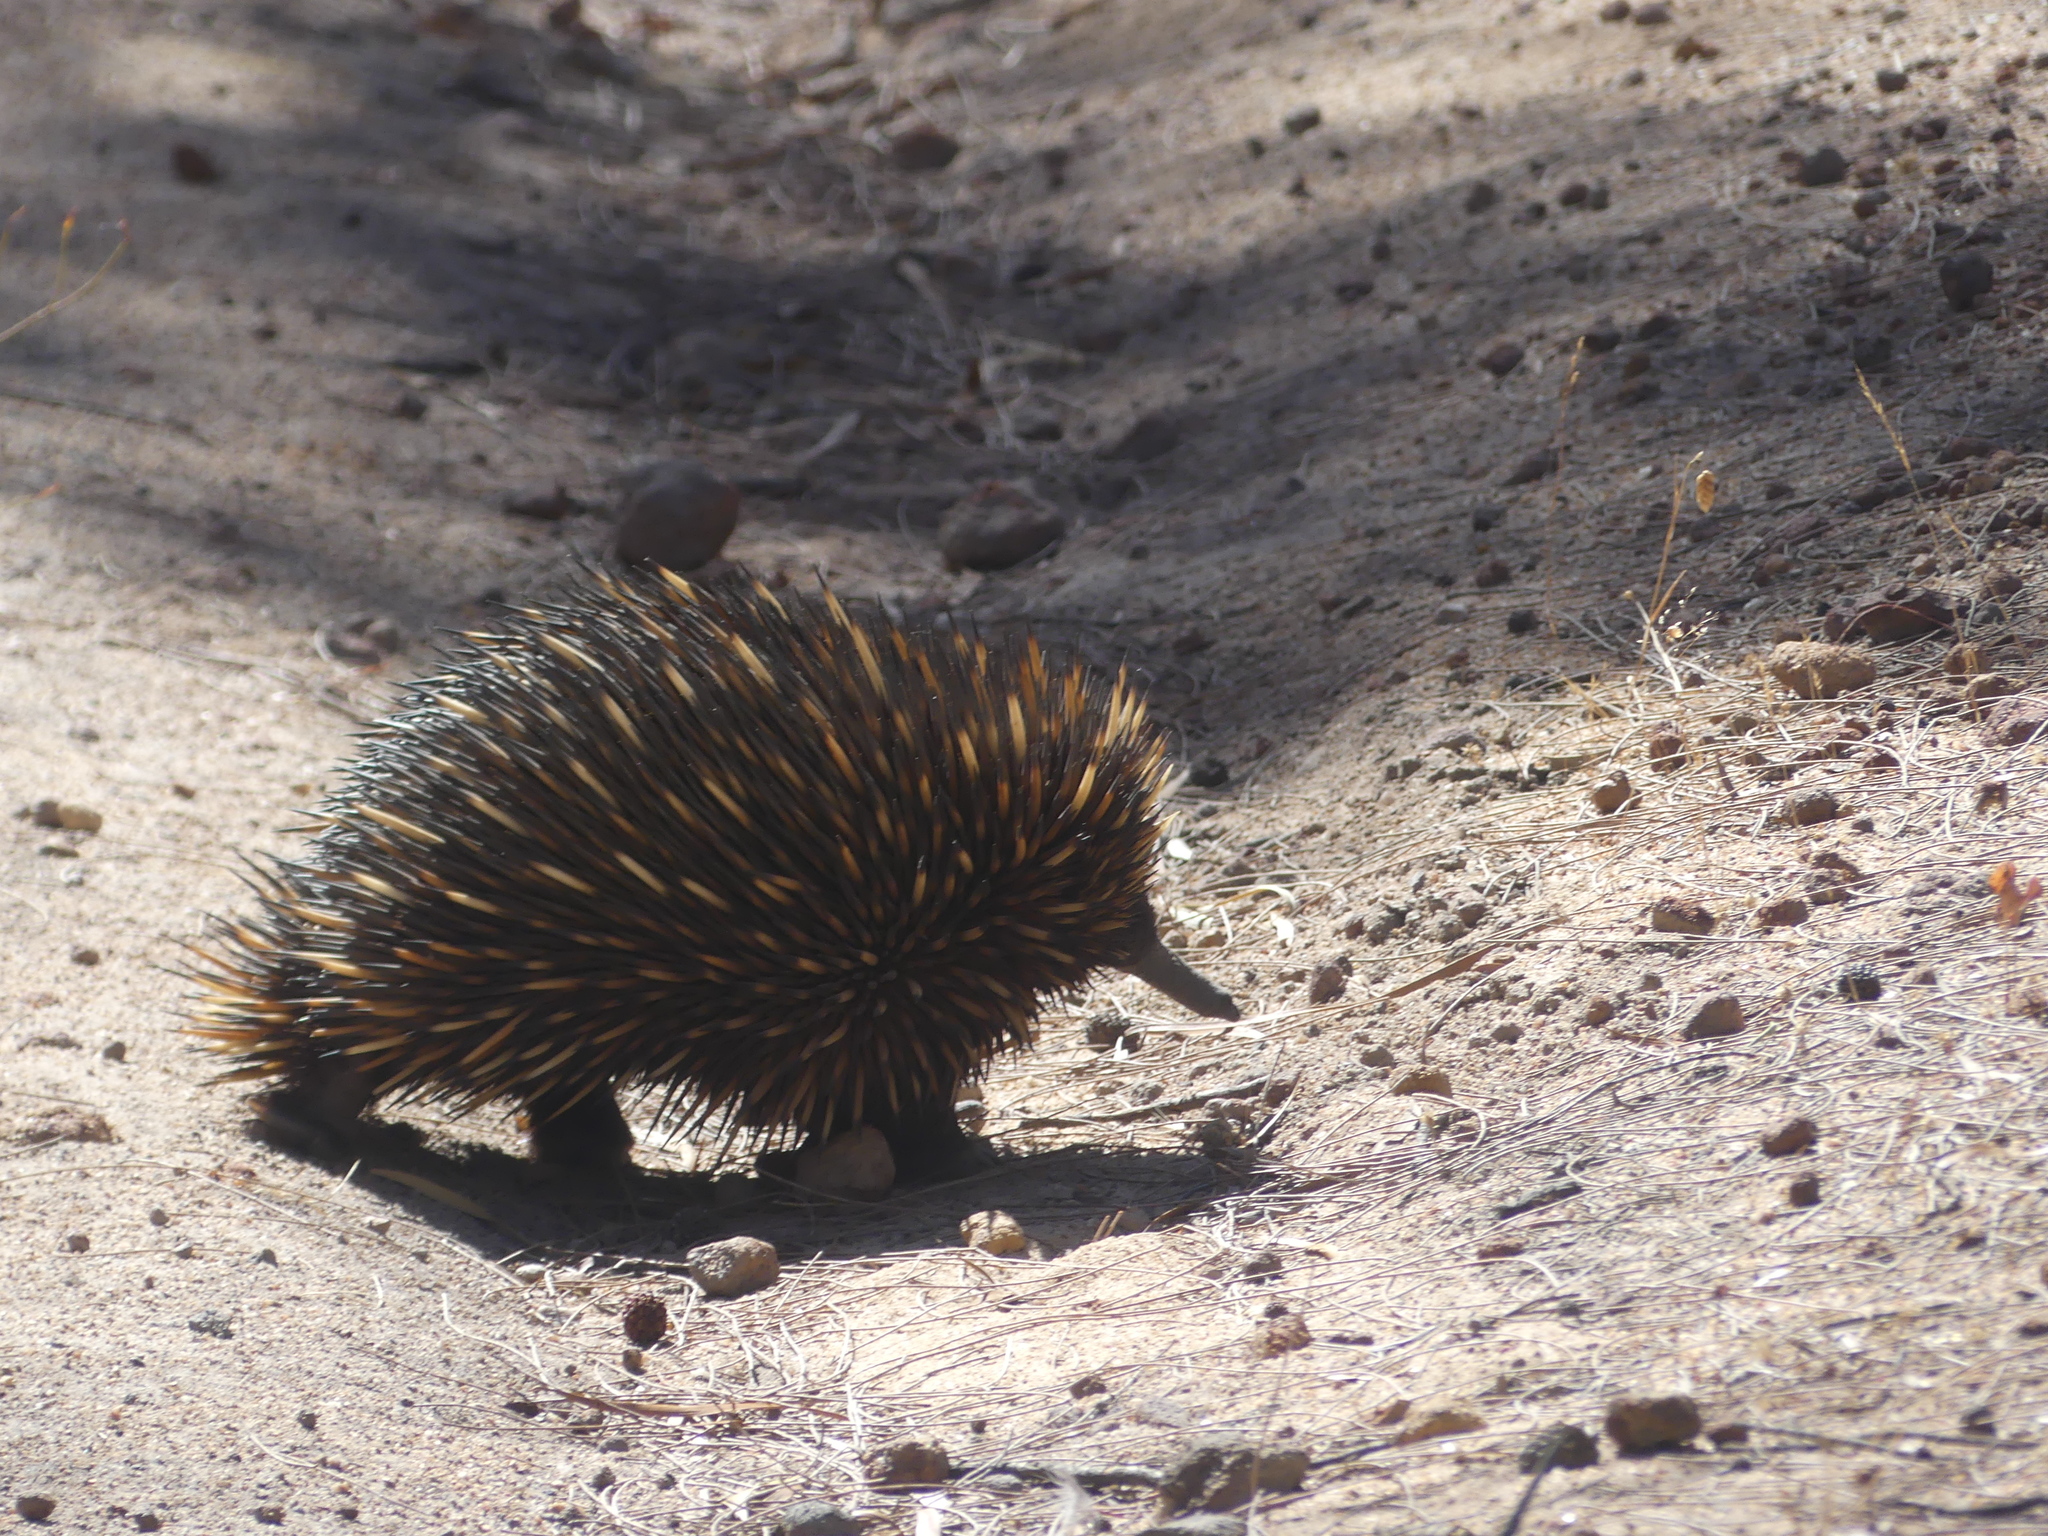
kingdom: Animalia
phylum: Chordata
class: Mammalia
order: Monotremata
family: Tachyglossidae
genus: Tachyglossus
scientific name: Tachyglossus aculeatus
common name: Short-beaked echidna
